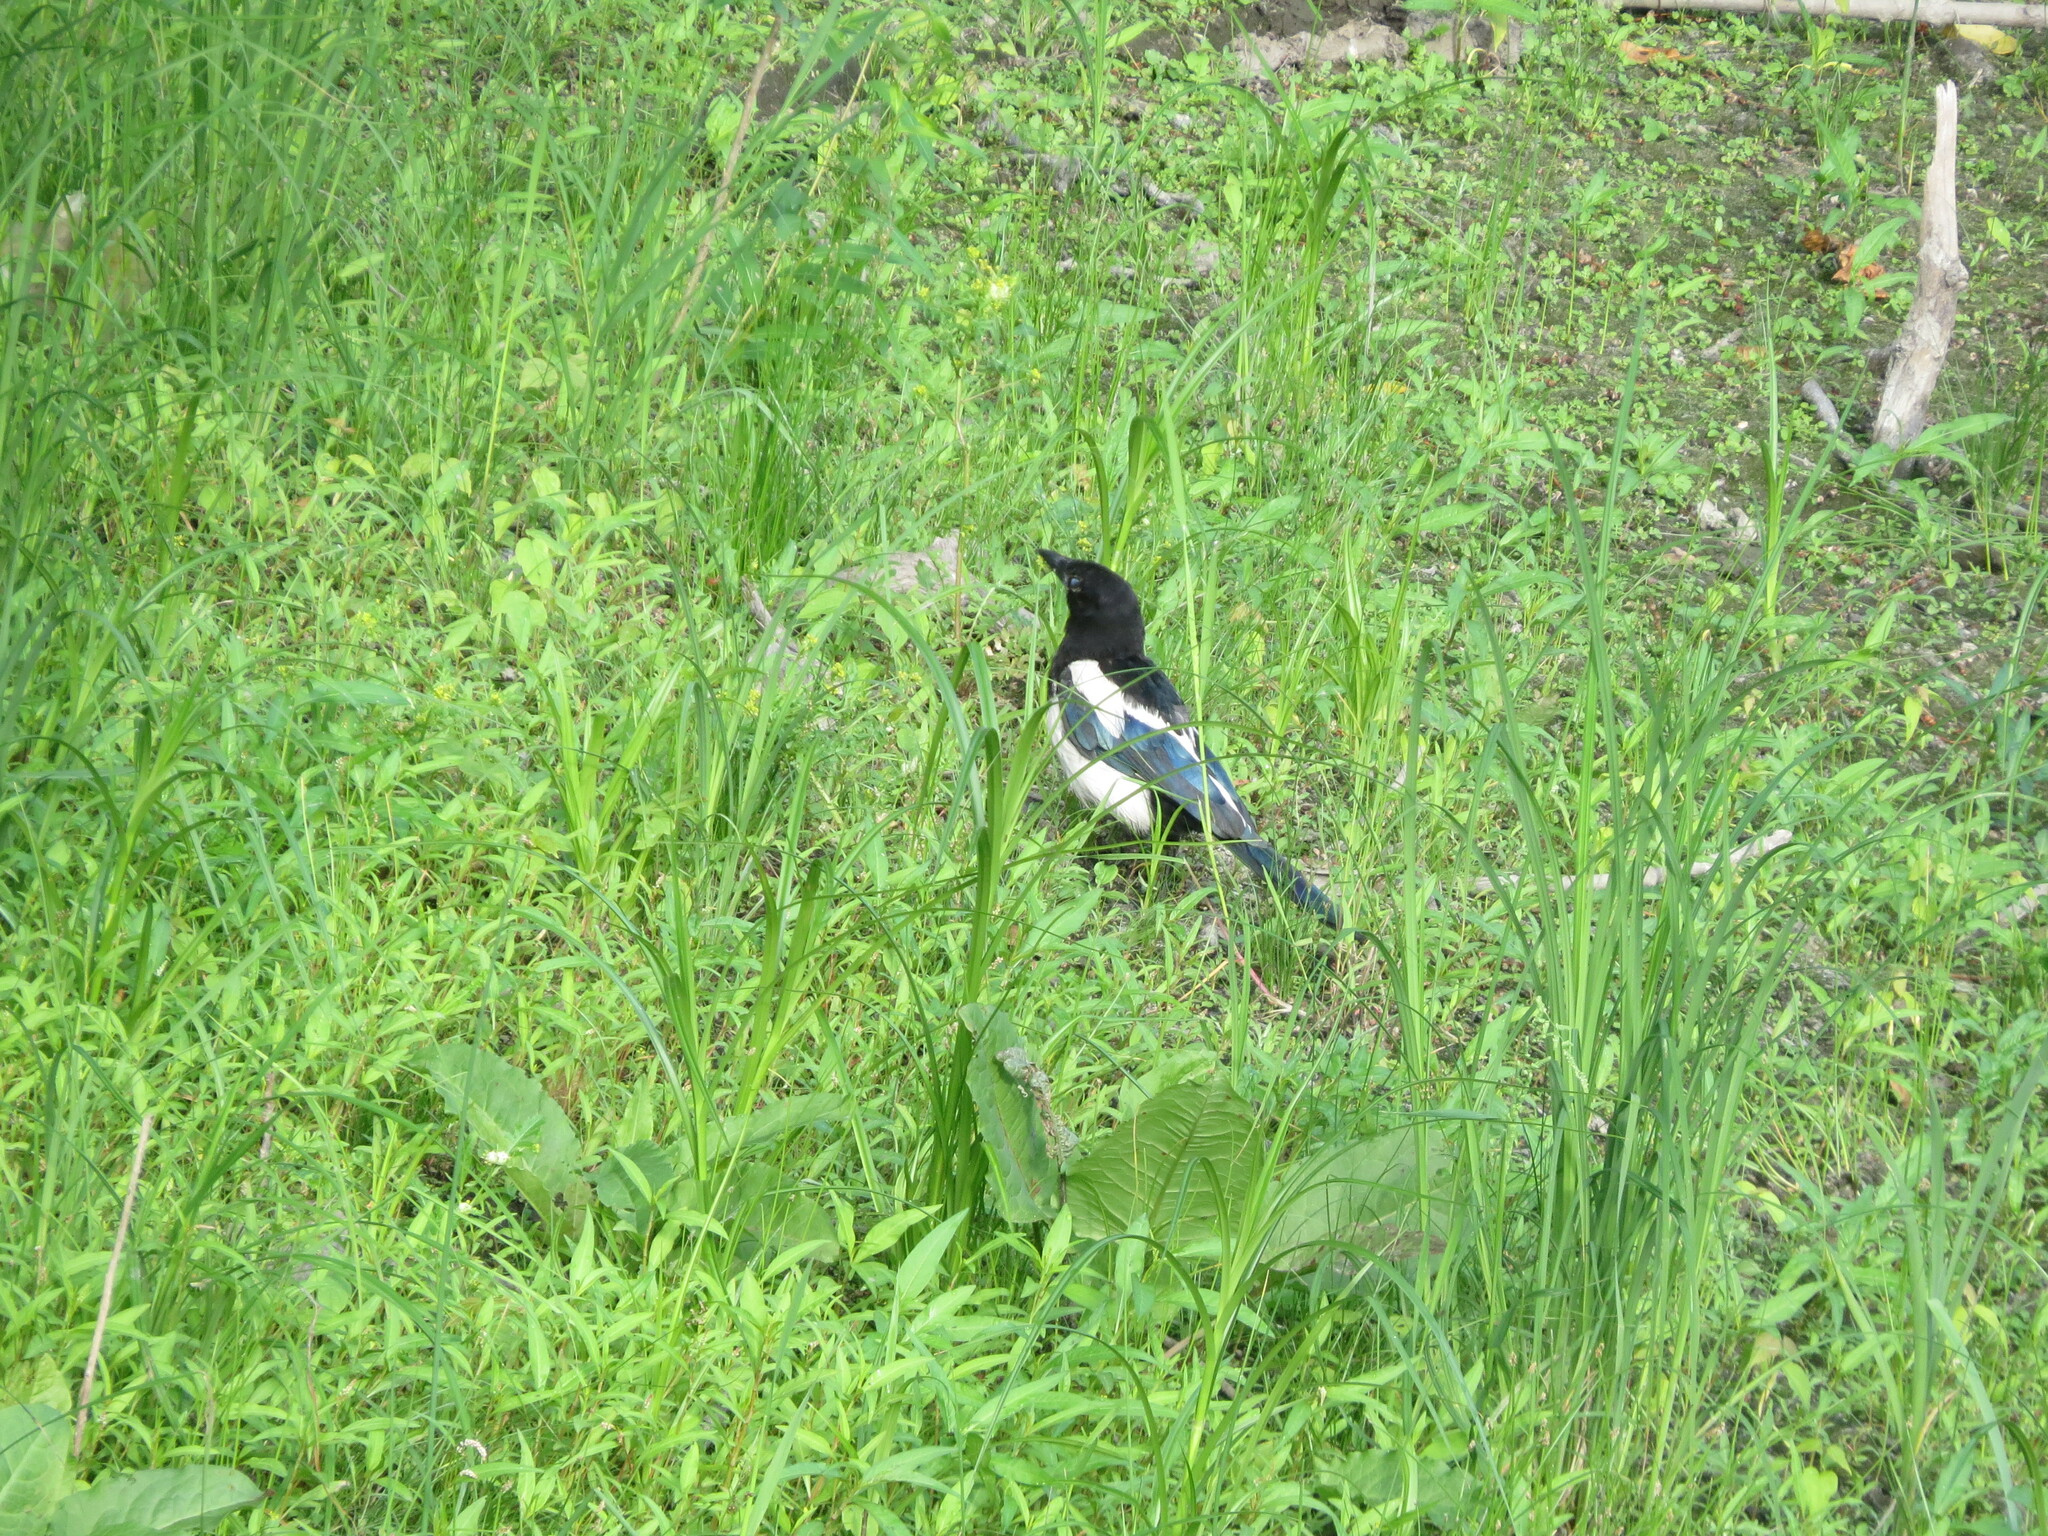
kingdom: Animalia
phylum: Chordata
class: Aves
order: Passeriformes
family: Corvidae
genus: Pica
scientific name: Pica pica
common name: Eurasian magpie
